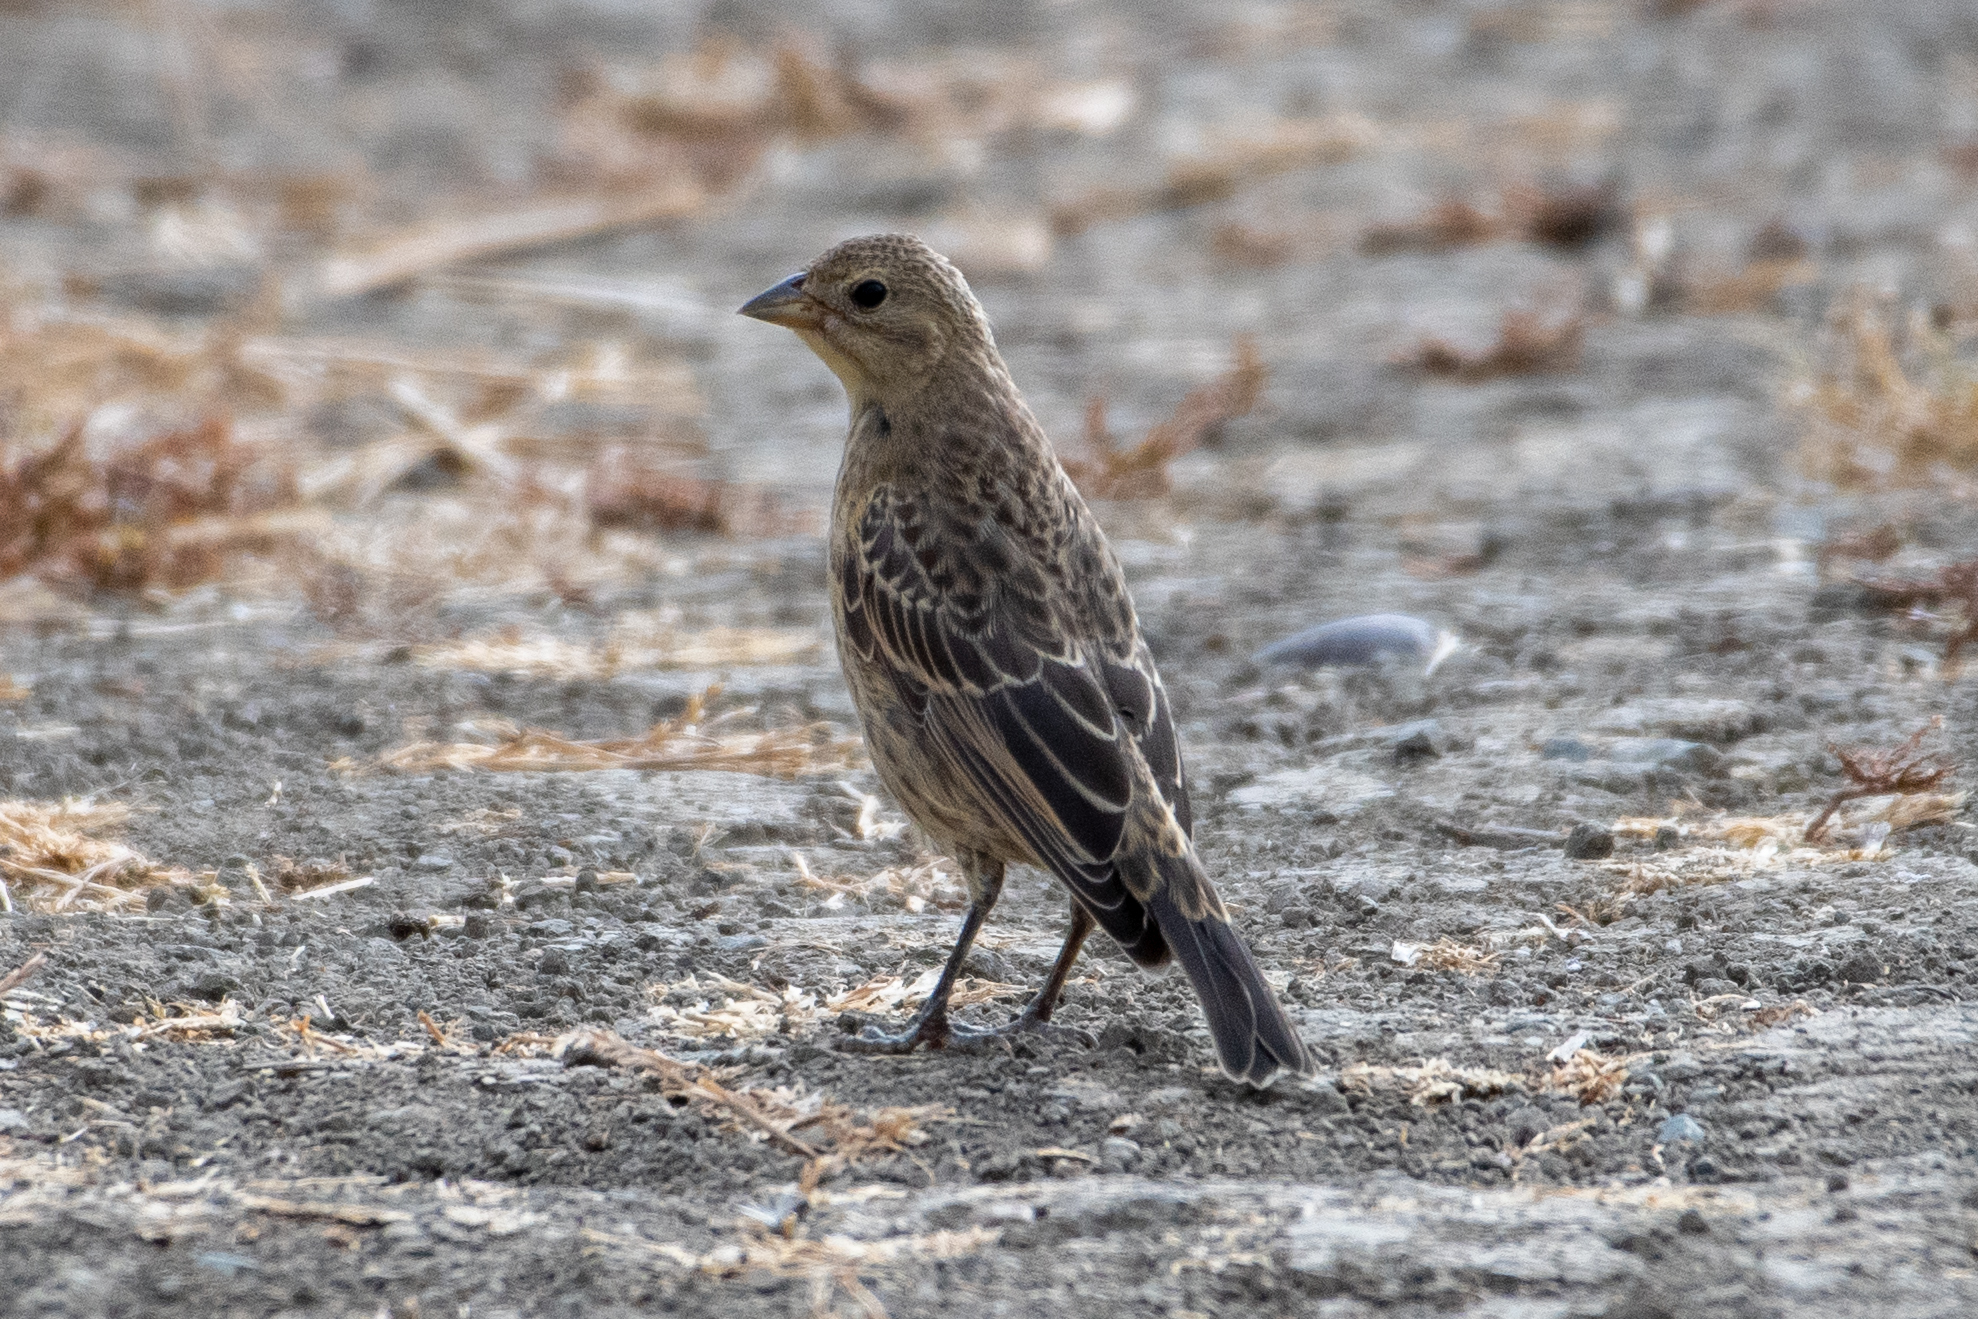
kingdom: Animalia
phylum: Chordata
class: Aves
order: Passeriformes
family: Icteridae
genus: Molothrus
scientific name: Molothrus ater
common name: Brown-headed cowbird
